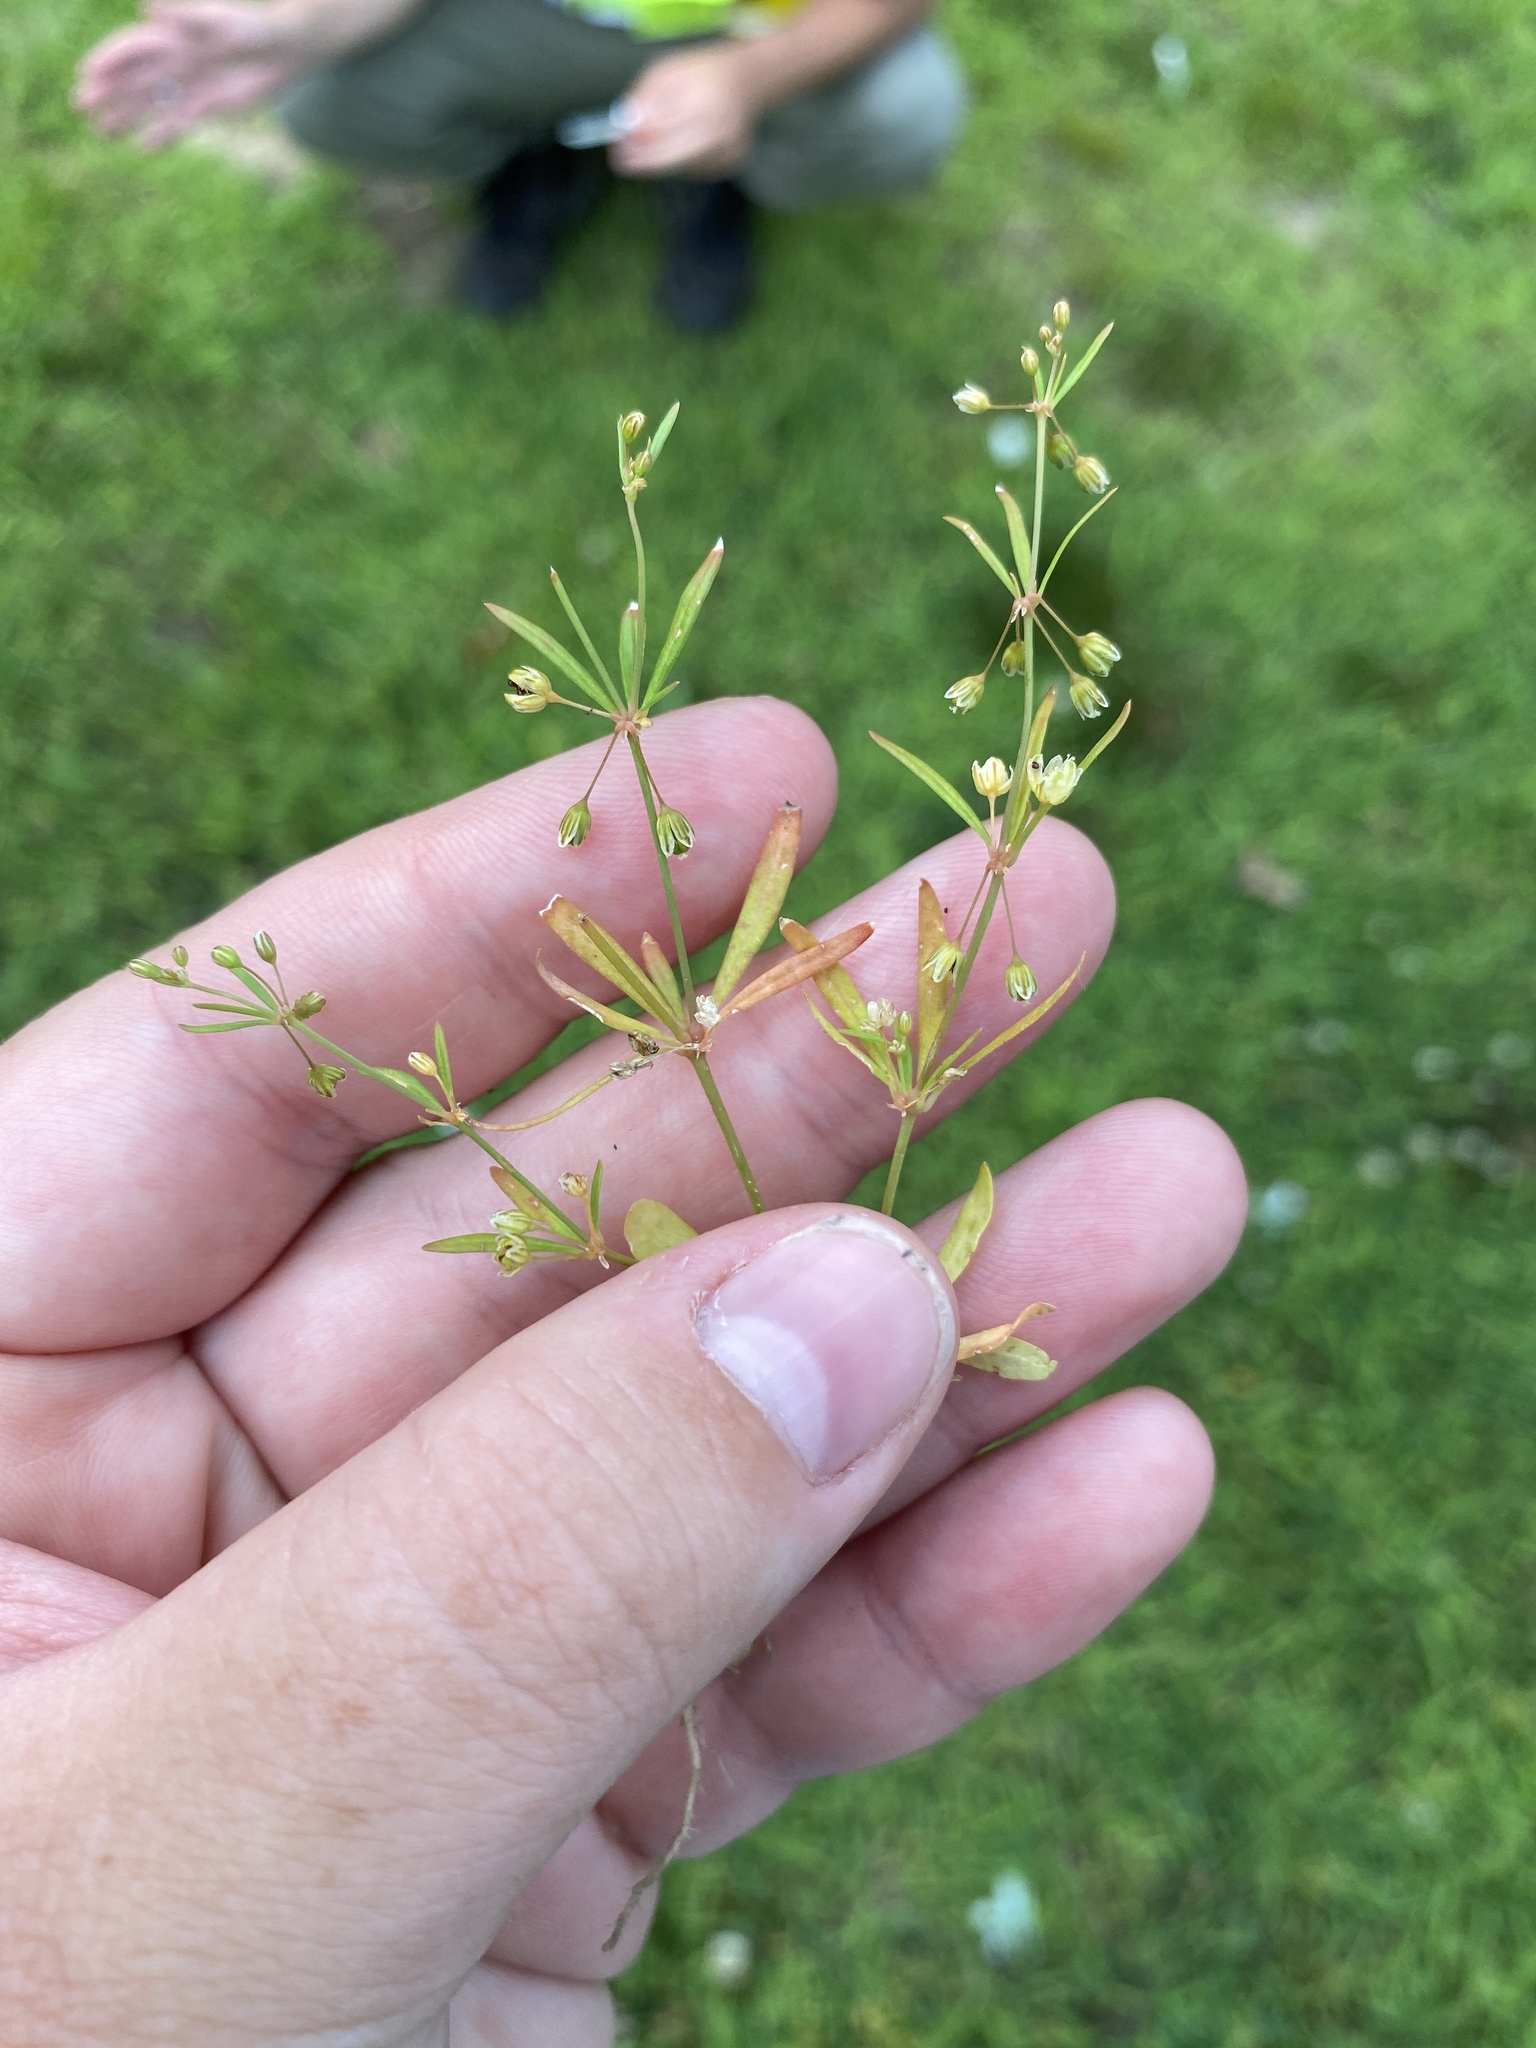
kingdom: Plantae
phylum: Tracheophyta
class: Magnoliopsida
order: Caryophyllales
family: Molluginaceae
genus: Mollugo
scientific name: Mollugo verticillata
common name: Green carpetweed
